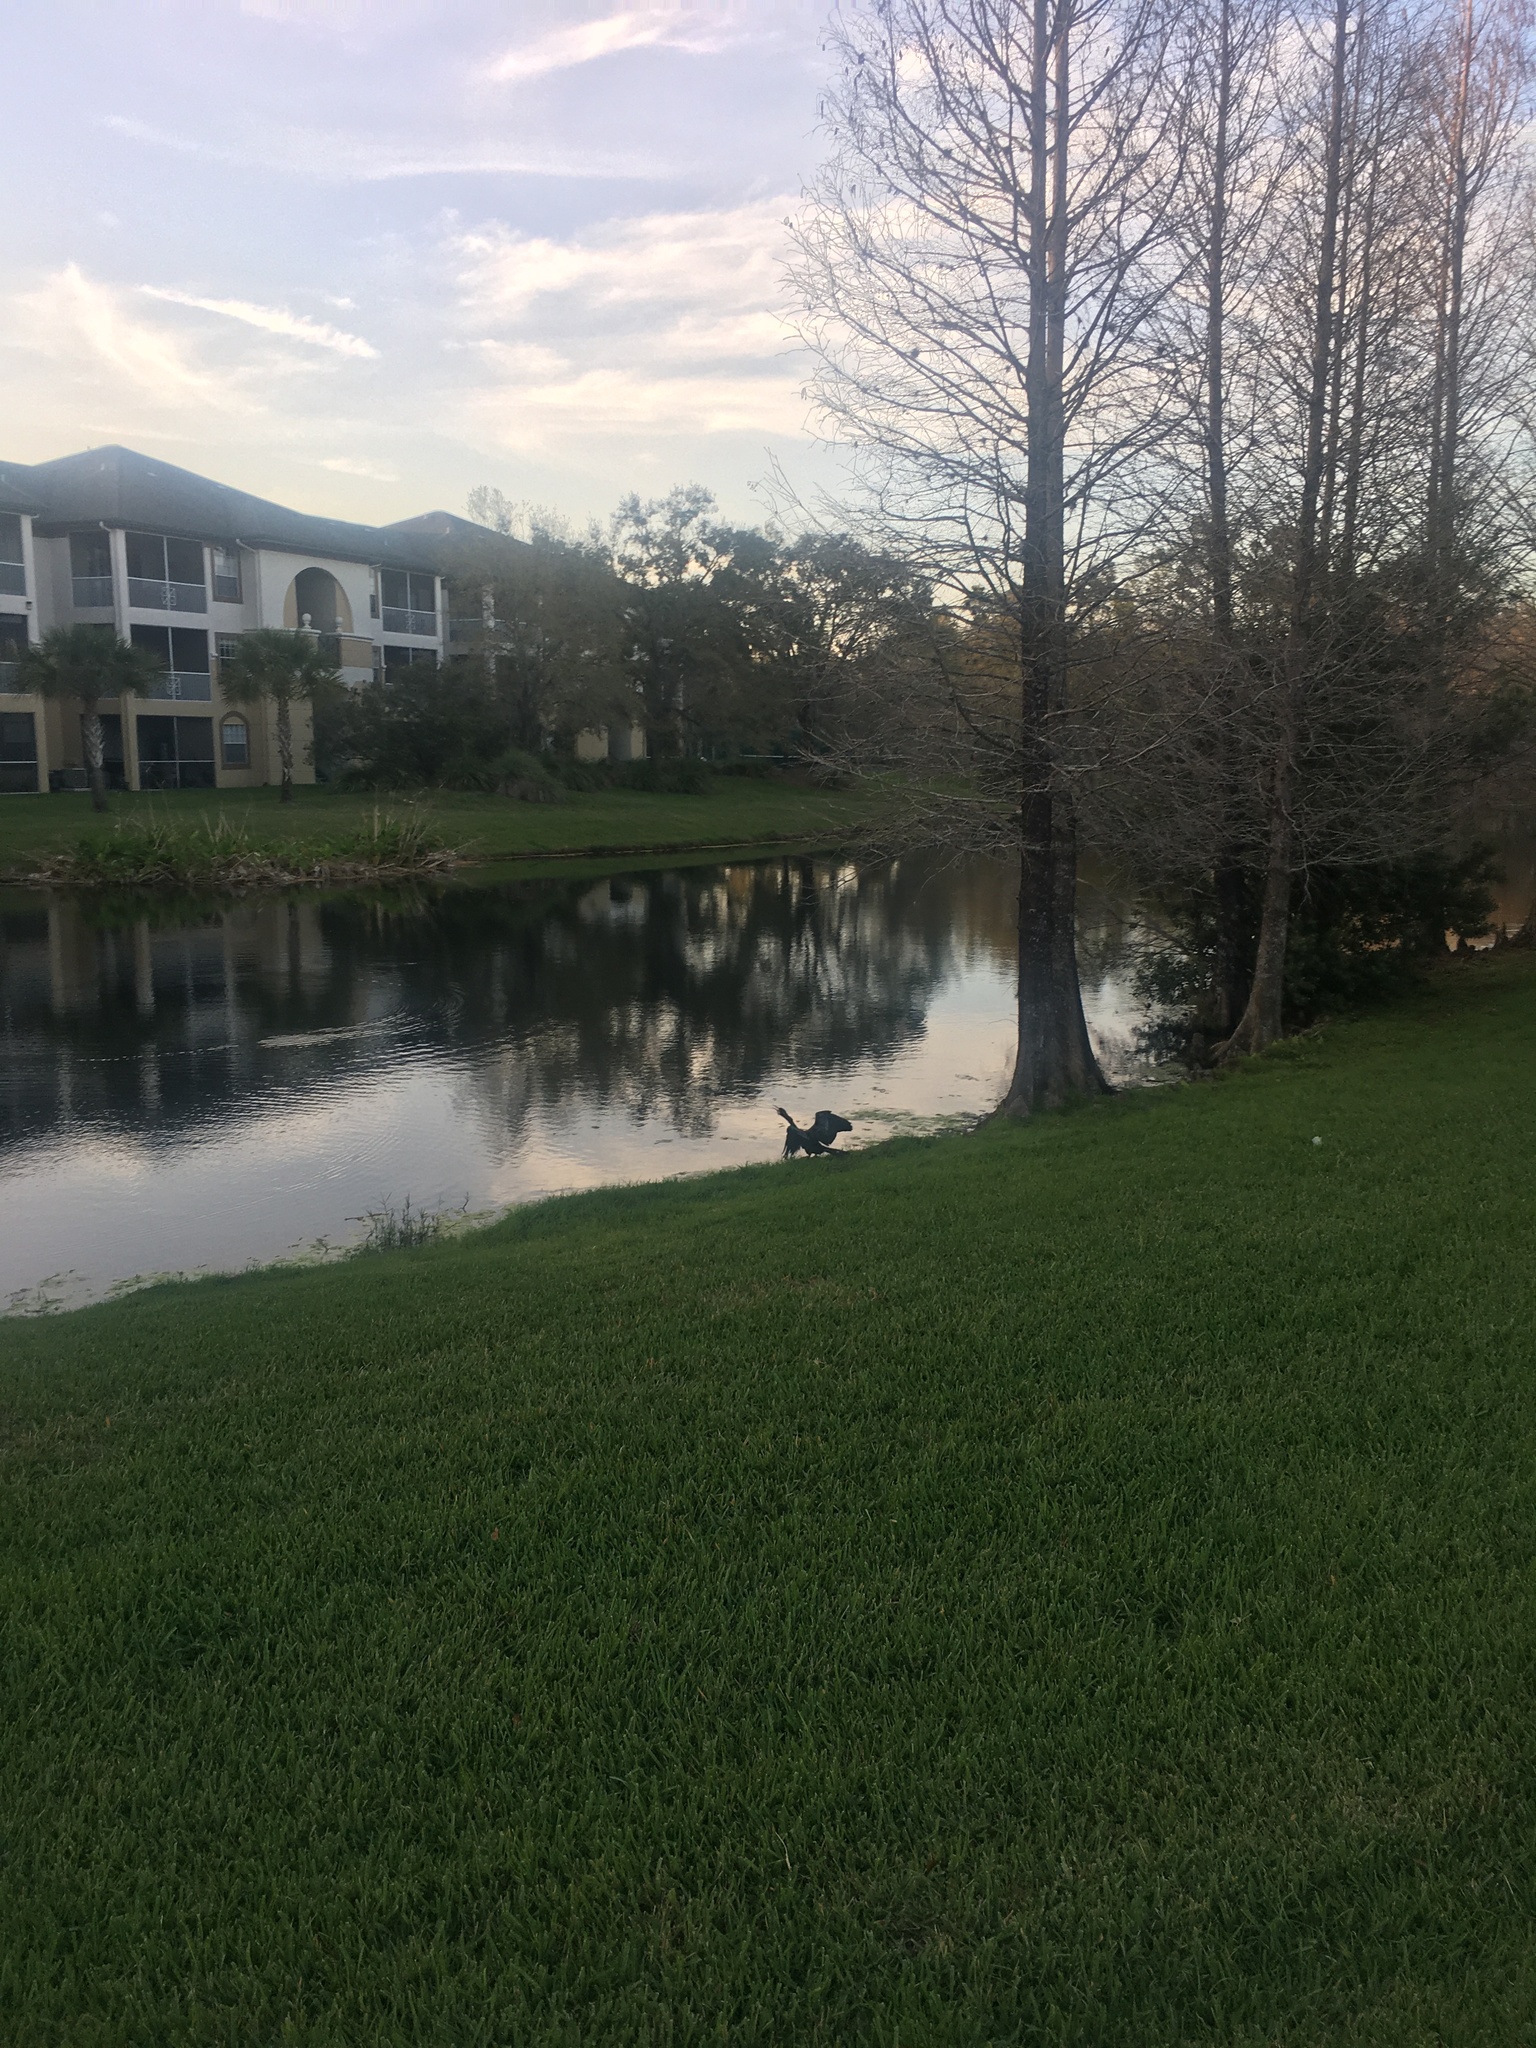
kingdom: Animalia
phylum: Chordata
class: Aves
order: Suliformes
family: Anhingidae
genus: Anhinga
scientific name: Anhinga anhinga
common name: Anhinga
